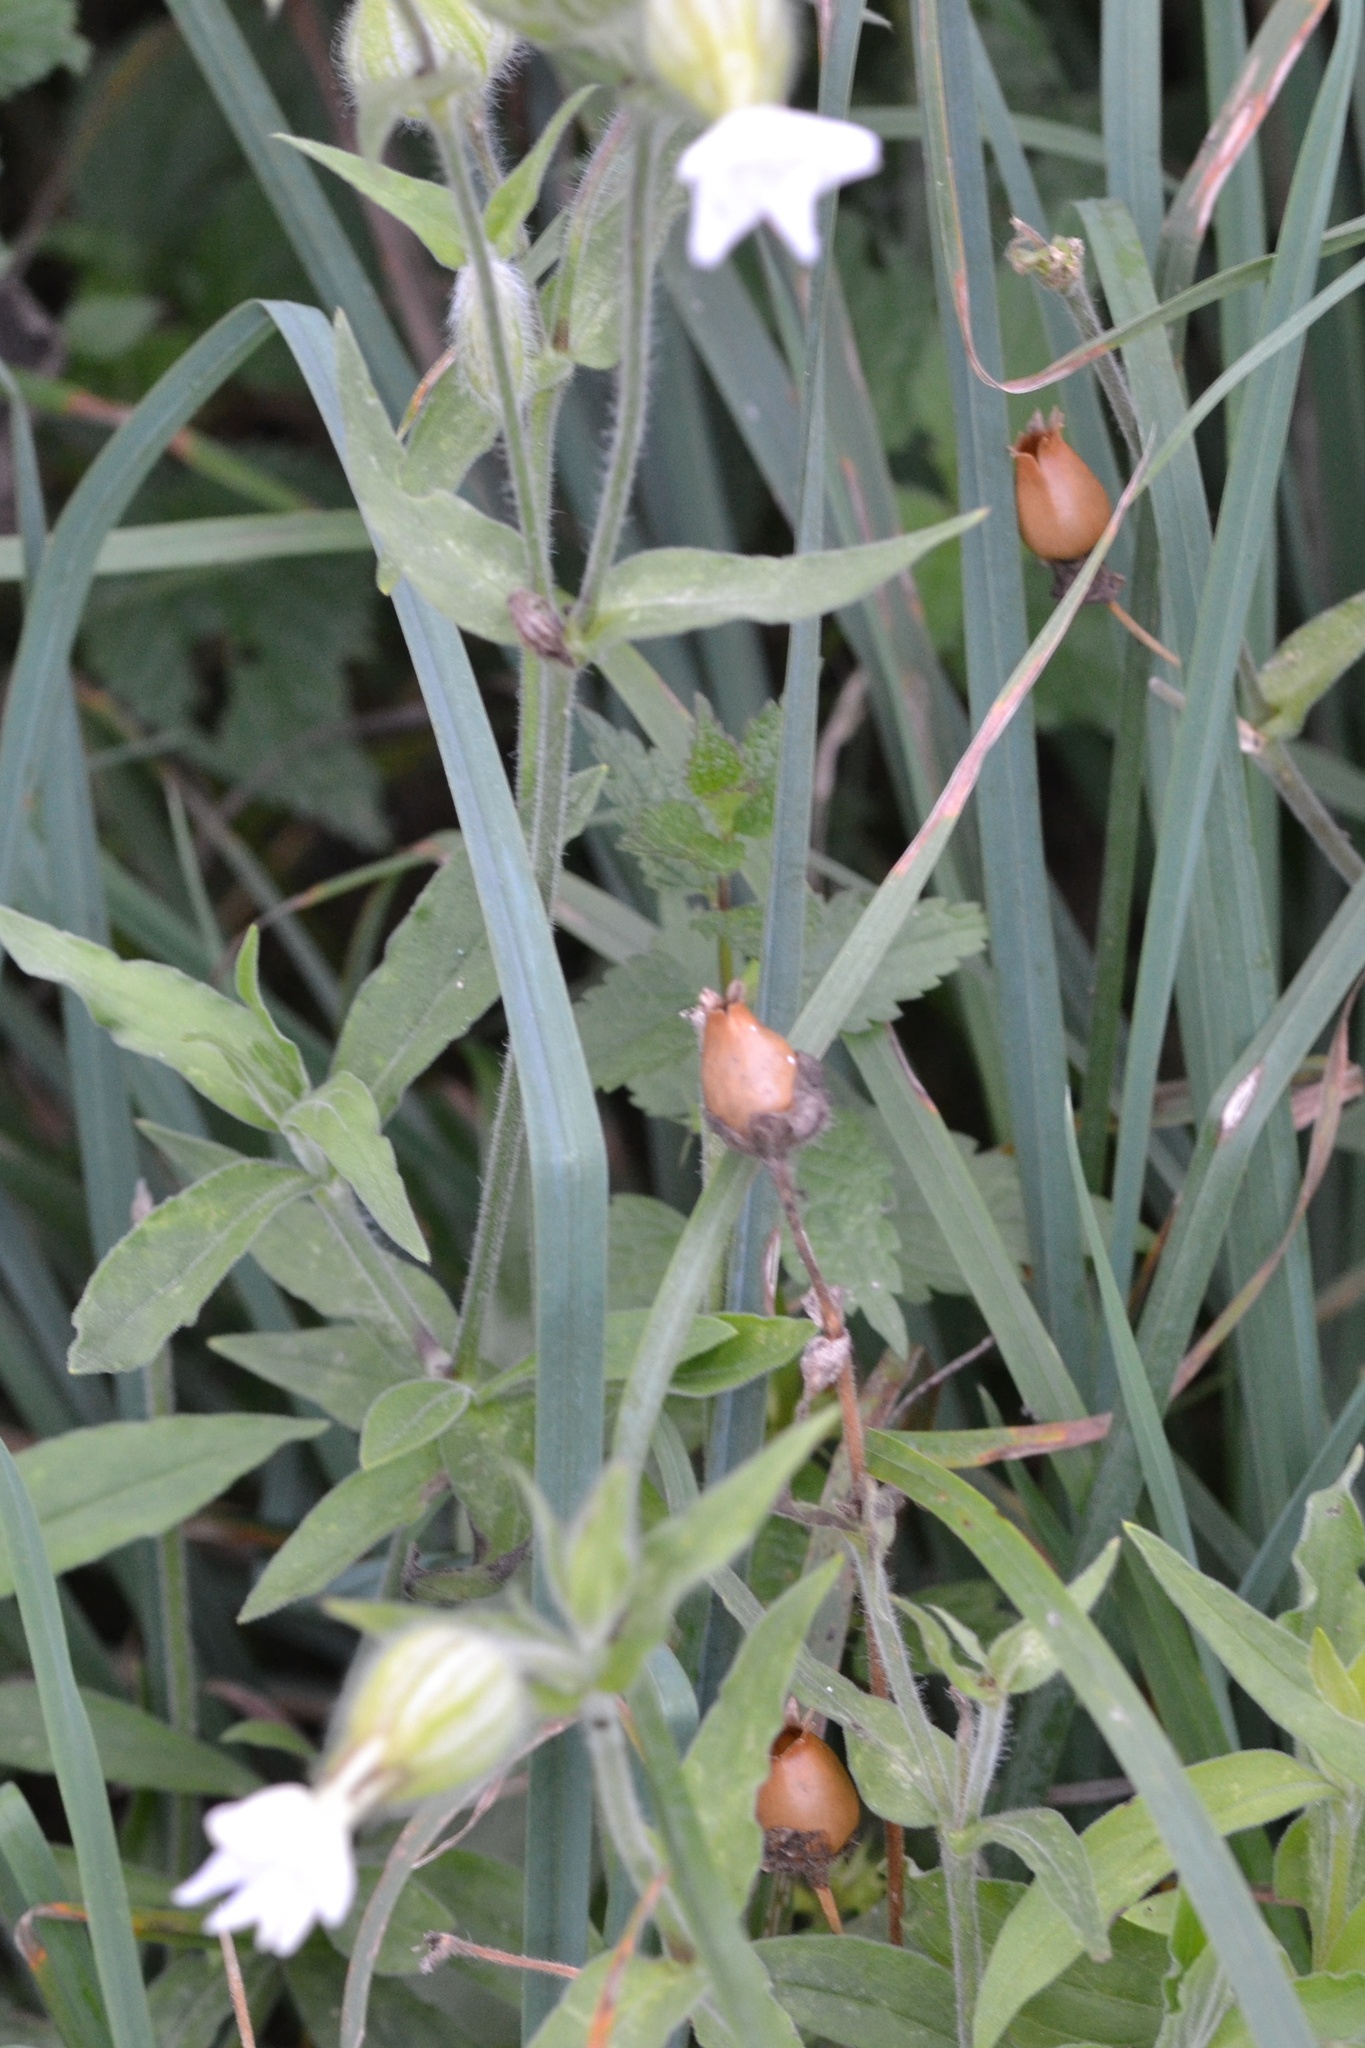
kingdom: Plantae
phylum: Tracheophyta
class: Magnoliopsida
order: Caryophyllales
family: Caryophyllaceae
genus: Silene
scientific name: Silene latifolia
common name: White campion
